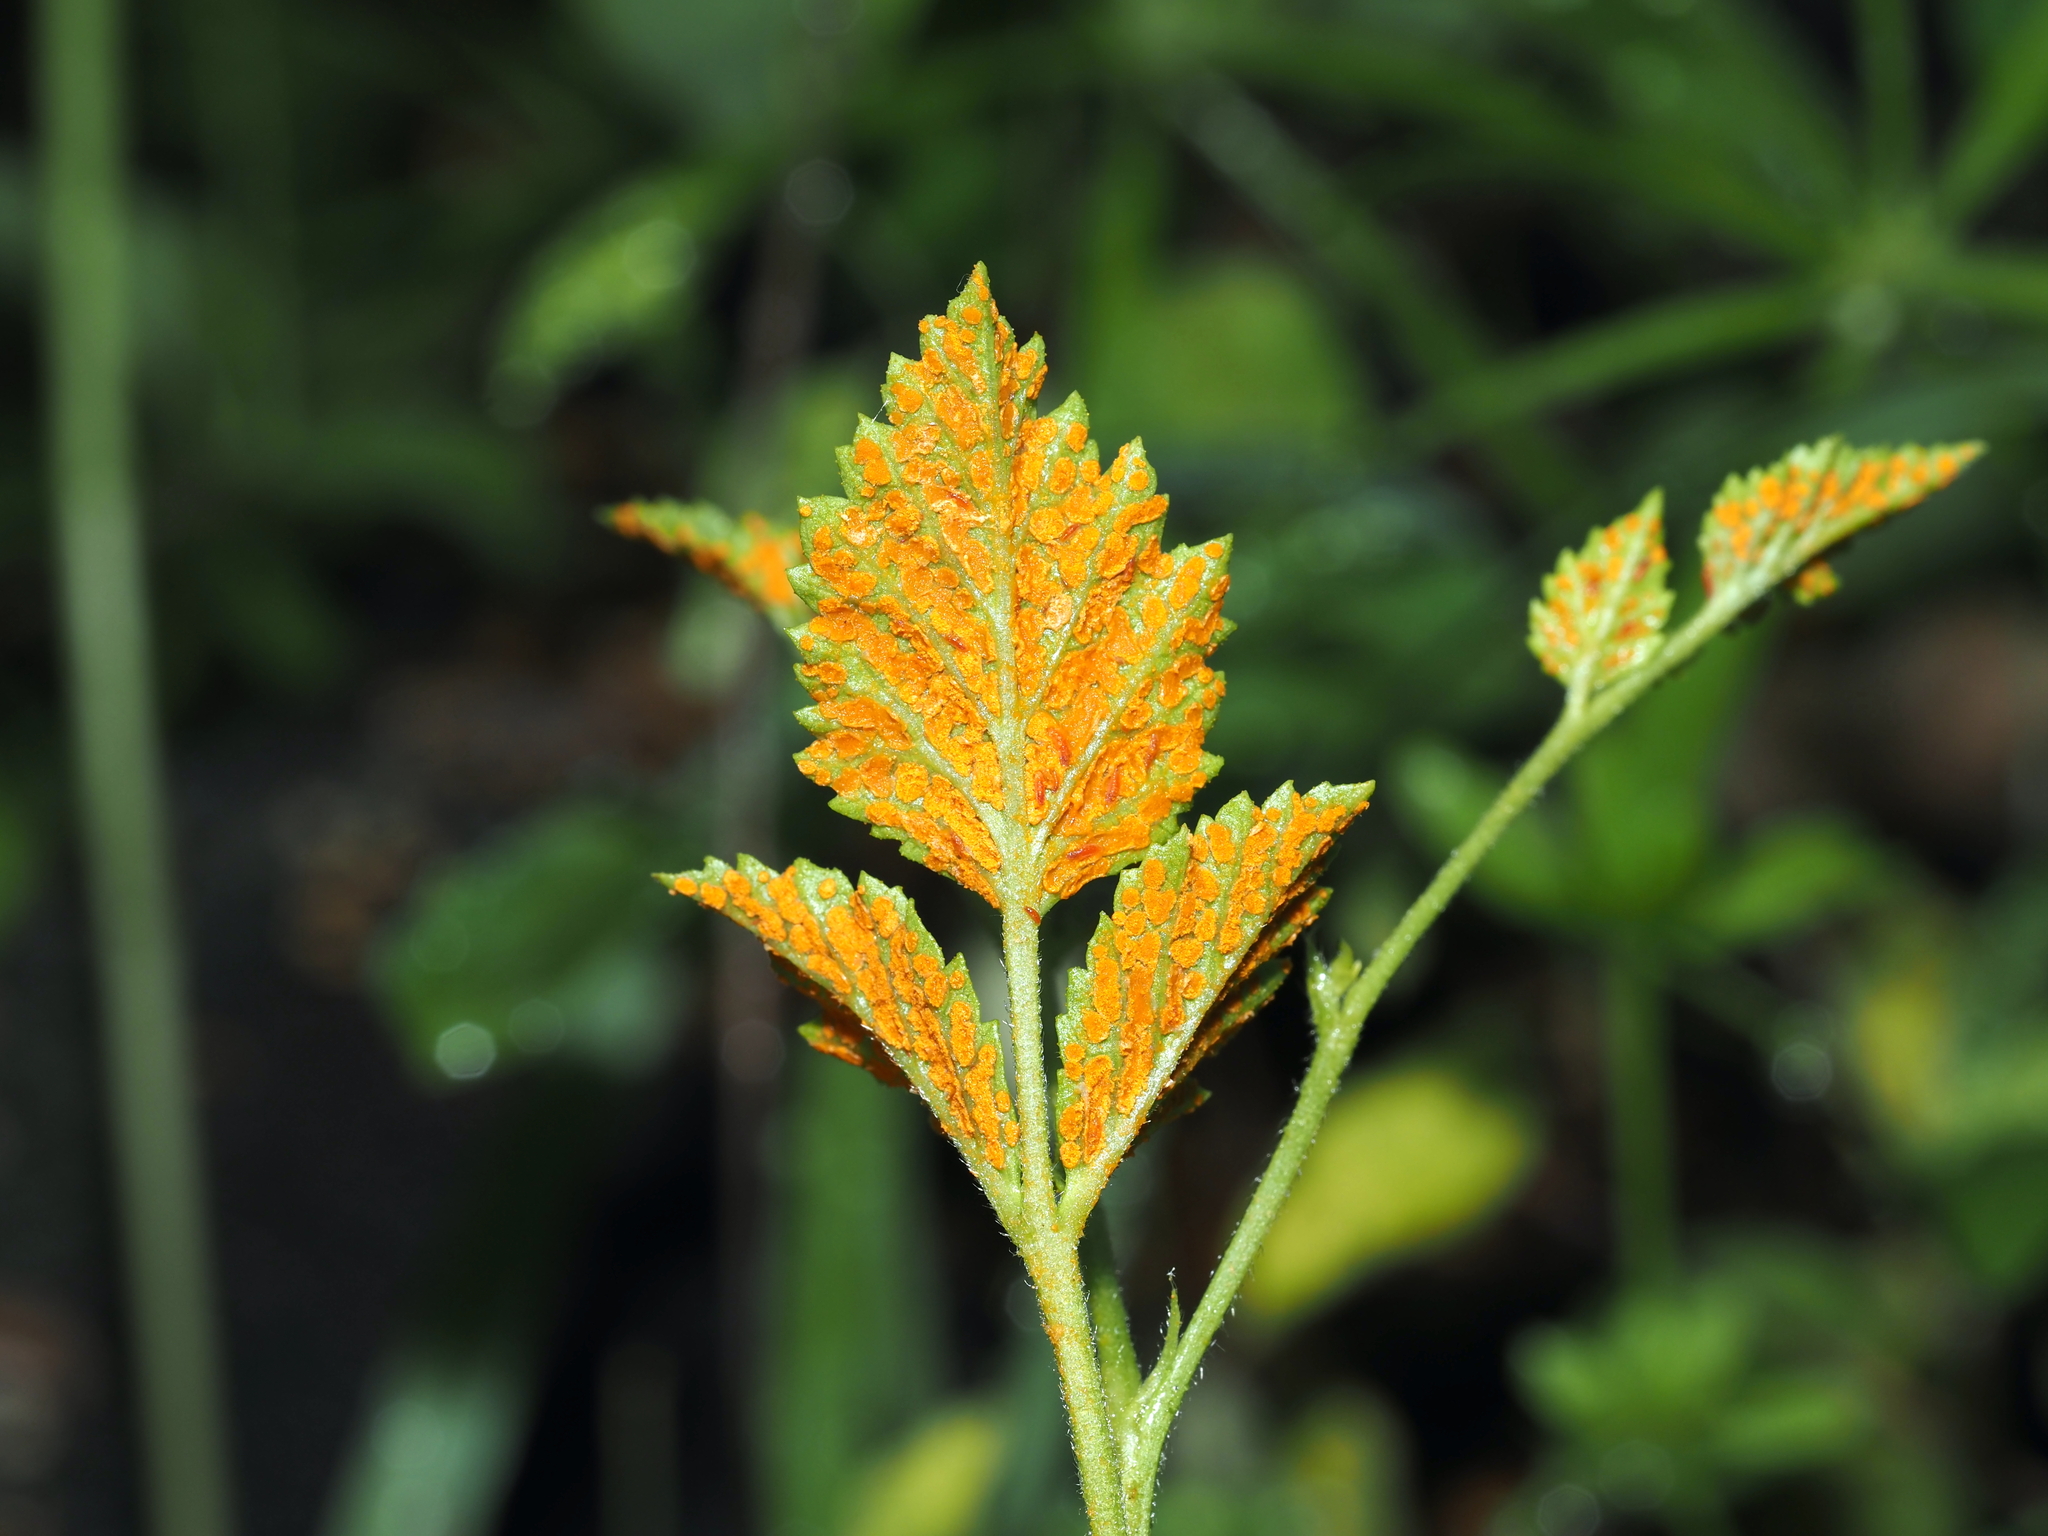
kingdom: Fungi
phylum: Basidiomycota
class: Pucciniomycetes
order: Pucciniales
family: Phragmidiaceae
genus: Arthuriomyces
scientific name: Arthuriomyces peckianus
